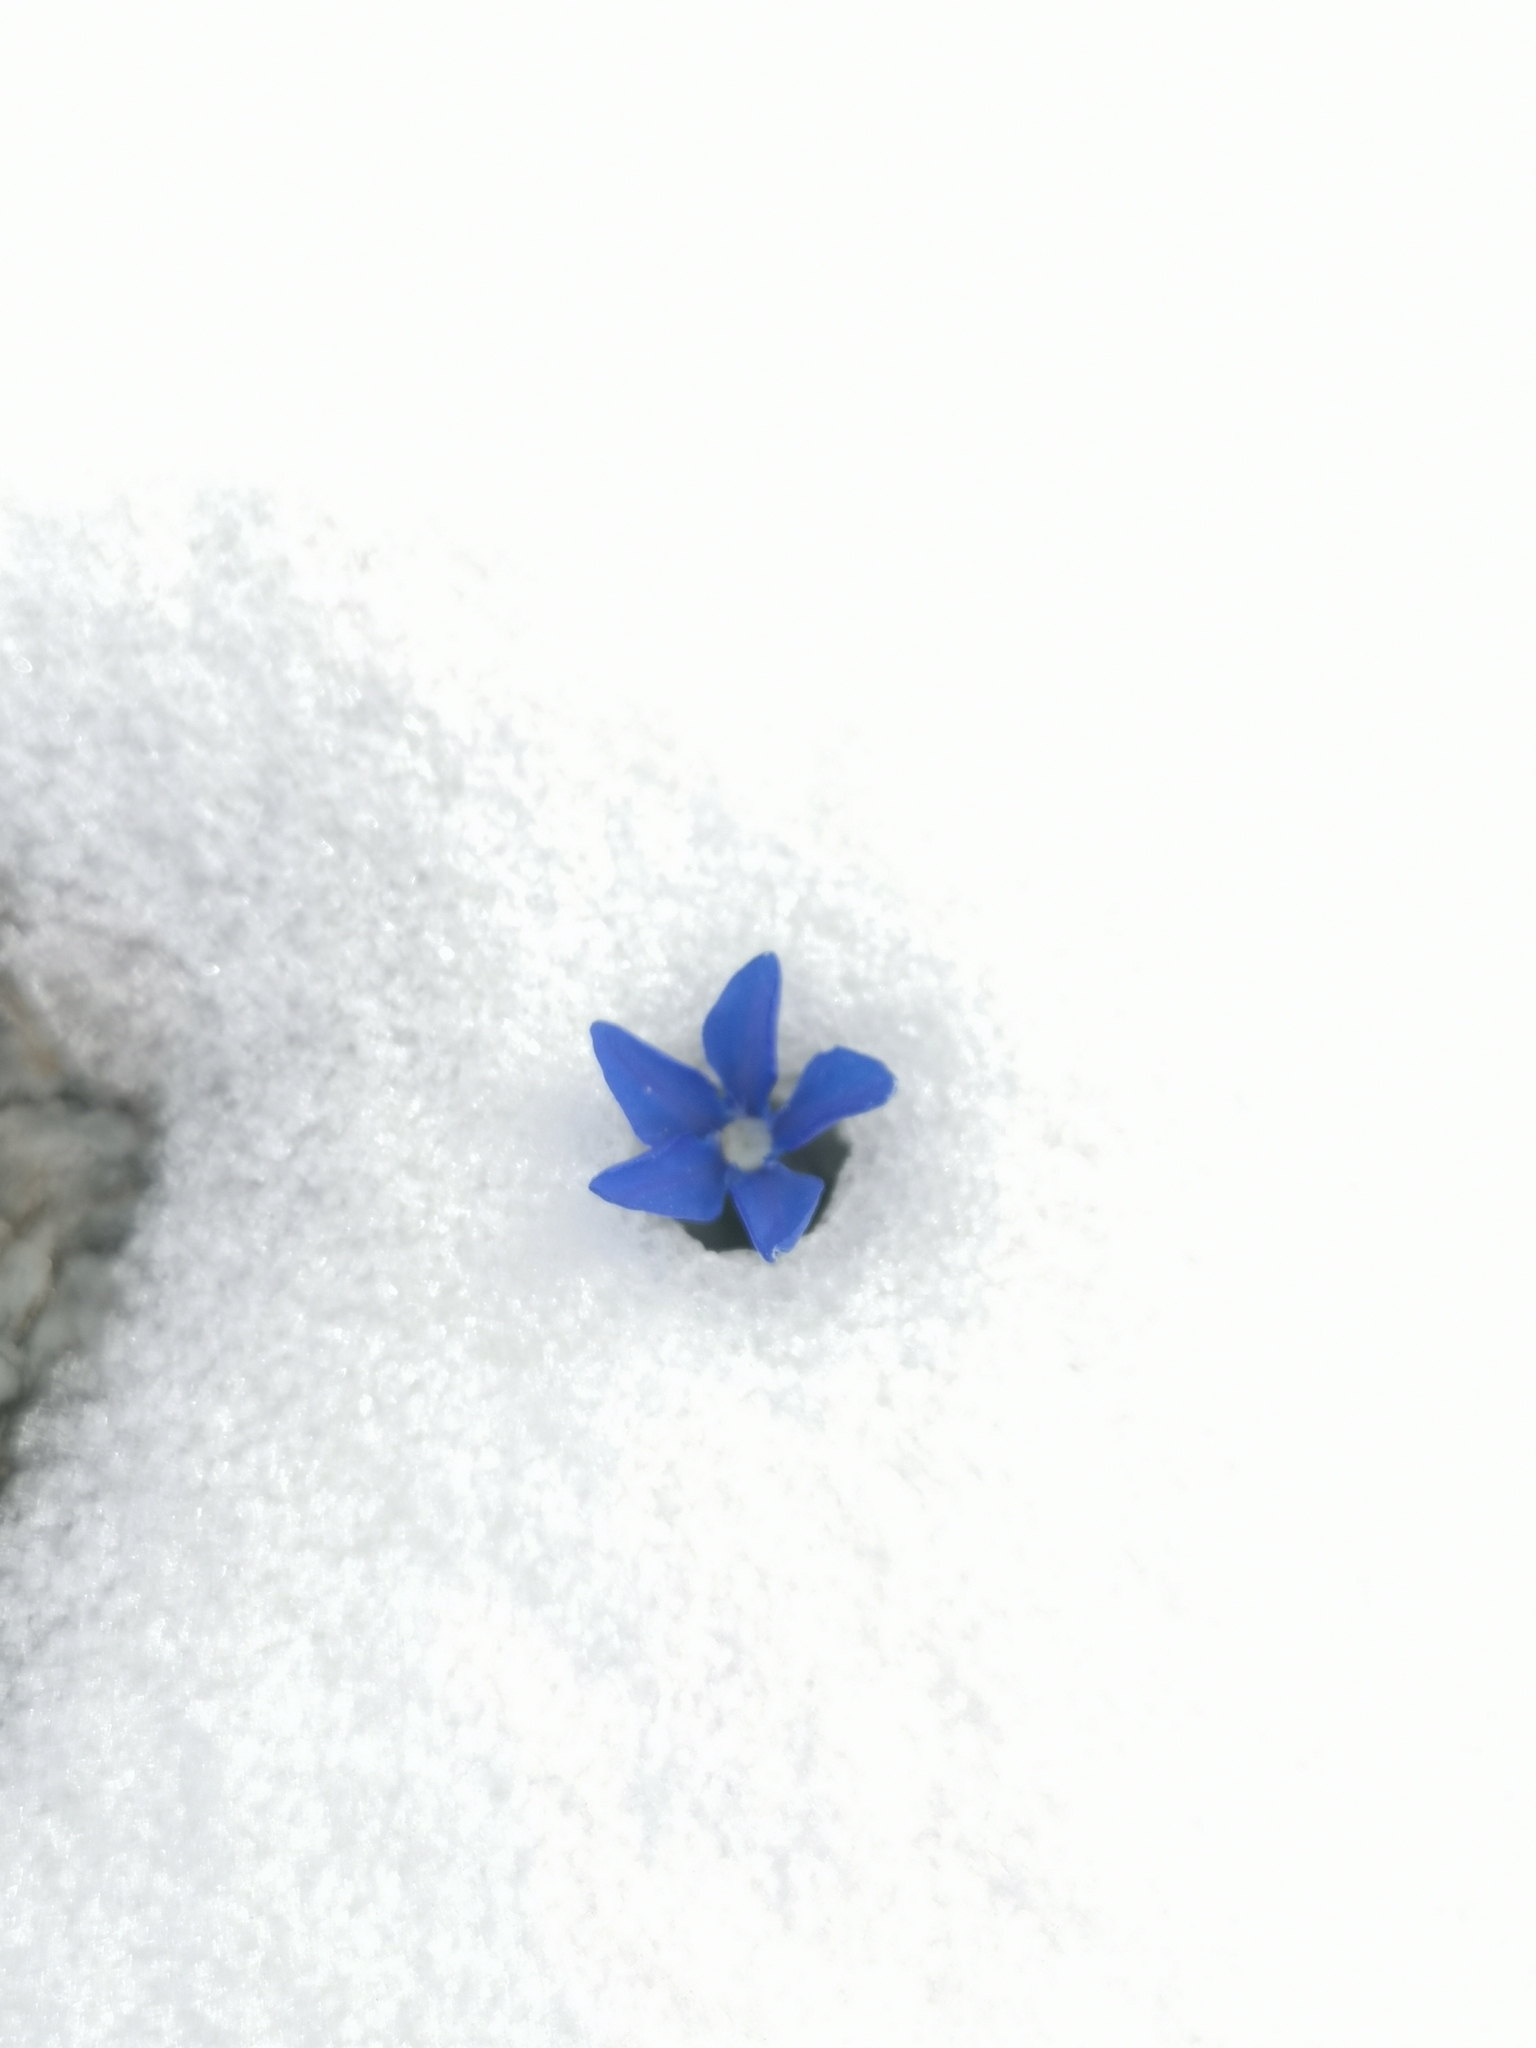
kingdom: Plantae
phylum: Tracheophyta
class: Magnoliopsida
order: Gentianales
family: Gentianaceae
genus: Gentiana
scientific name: Gentiana
